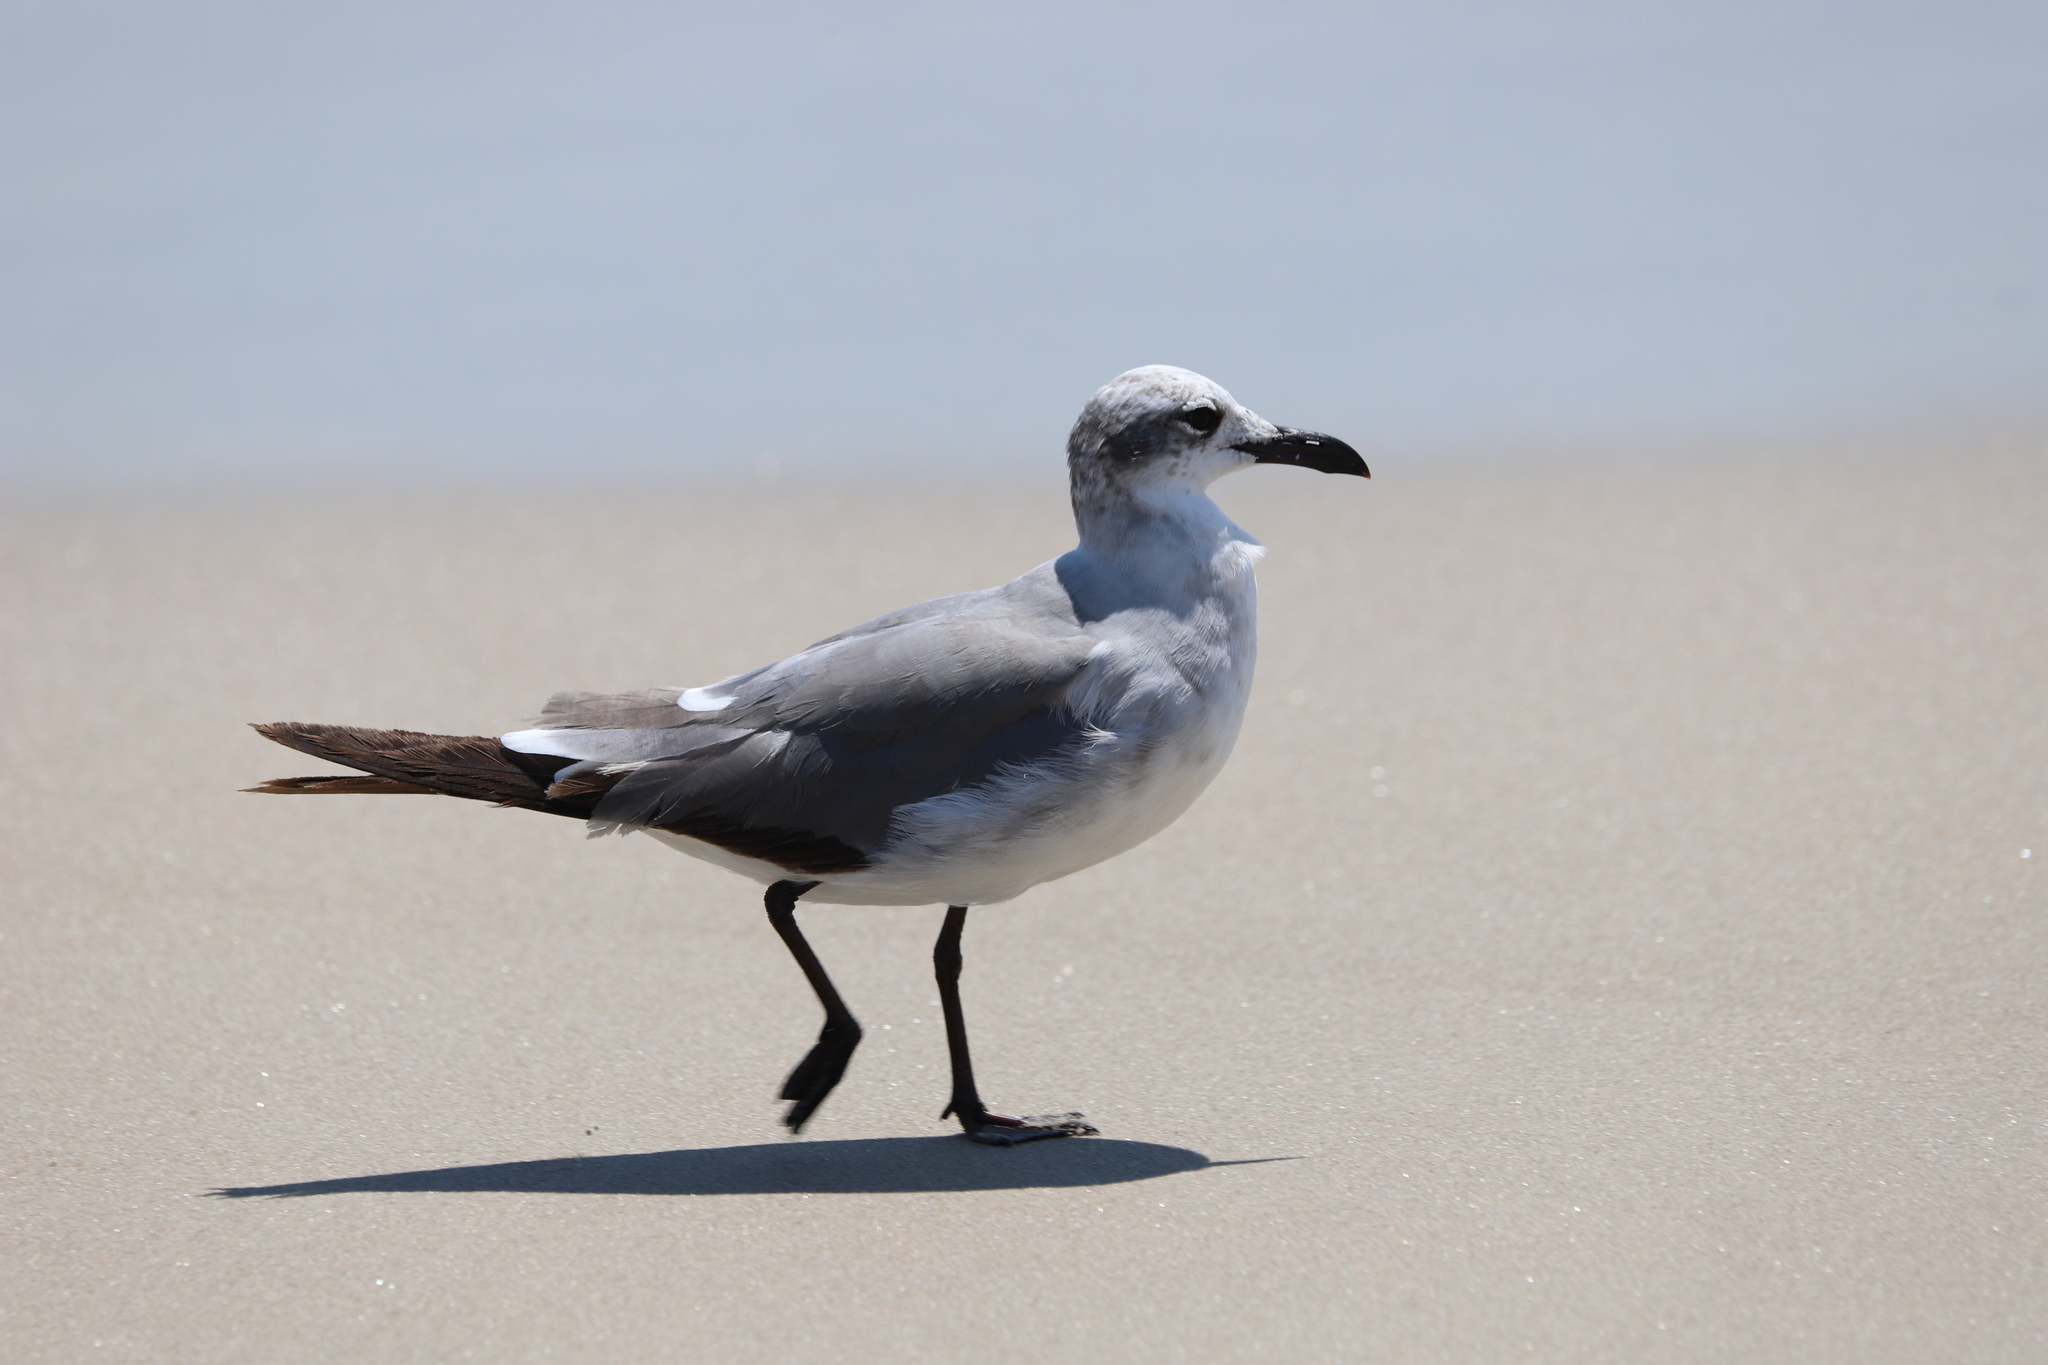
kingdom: Animalia
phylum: Chordata
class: Aves
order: Charadriiformes
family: Laridae
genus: Leucophaeus
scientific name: Leucophaeus atricilla
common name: Laughing gull
